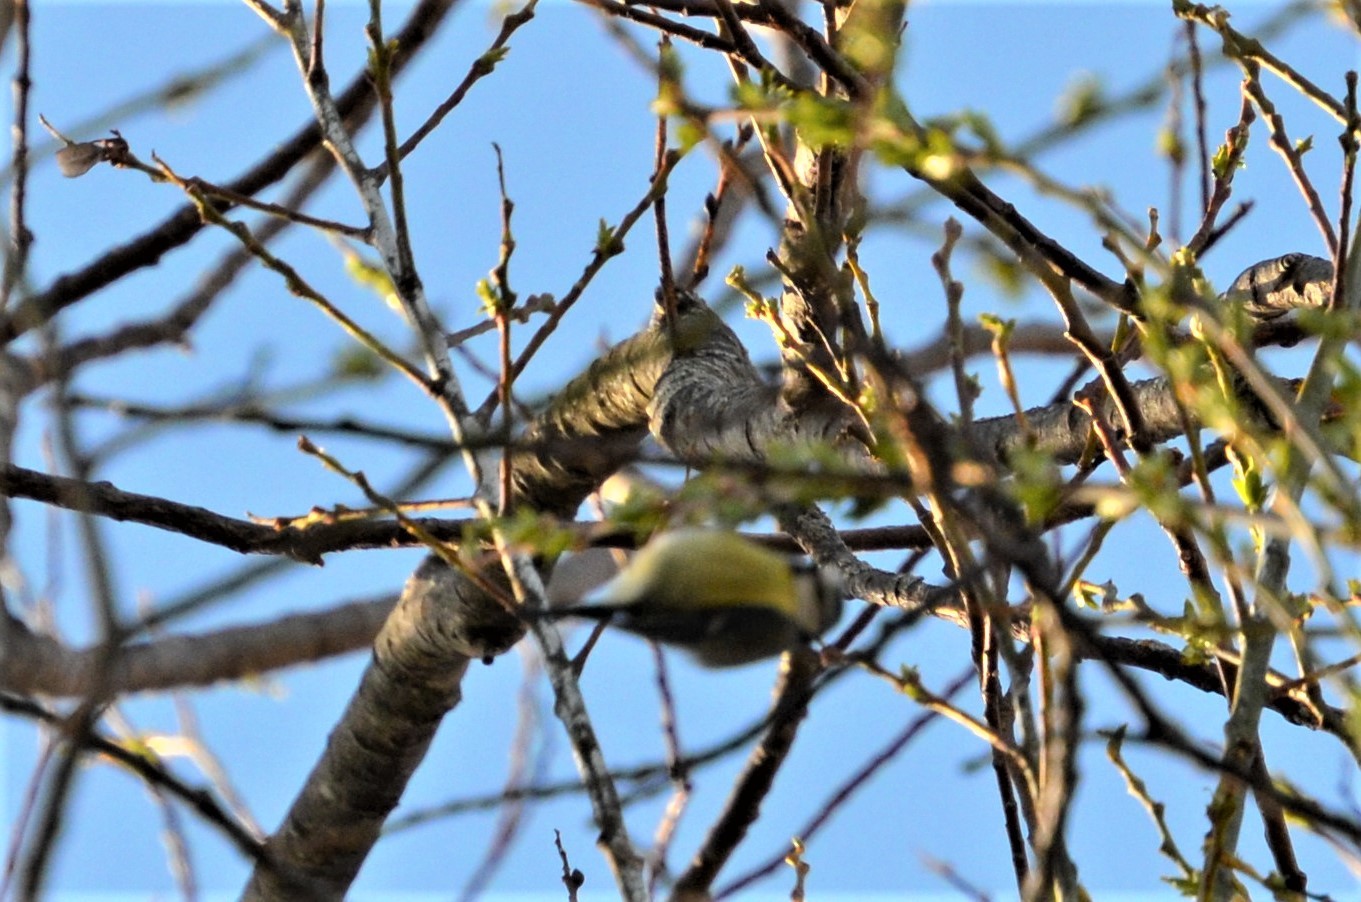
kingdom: Animalia
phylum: Chordata
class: Aves
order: Passeriformes
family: Paridae
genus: Cyanistes
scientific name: Cyanistes caeruleus
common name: Eurasian blue tit
